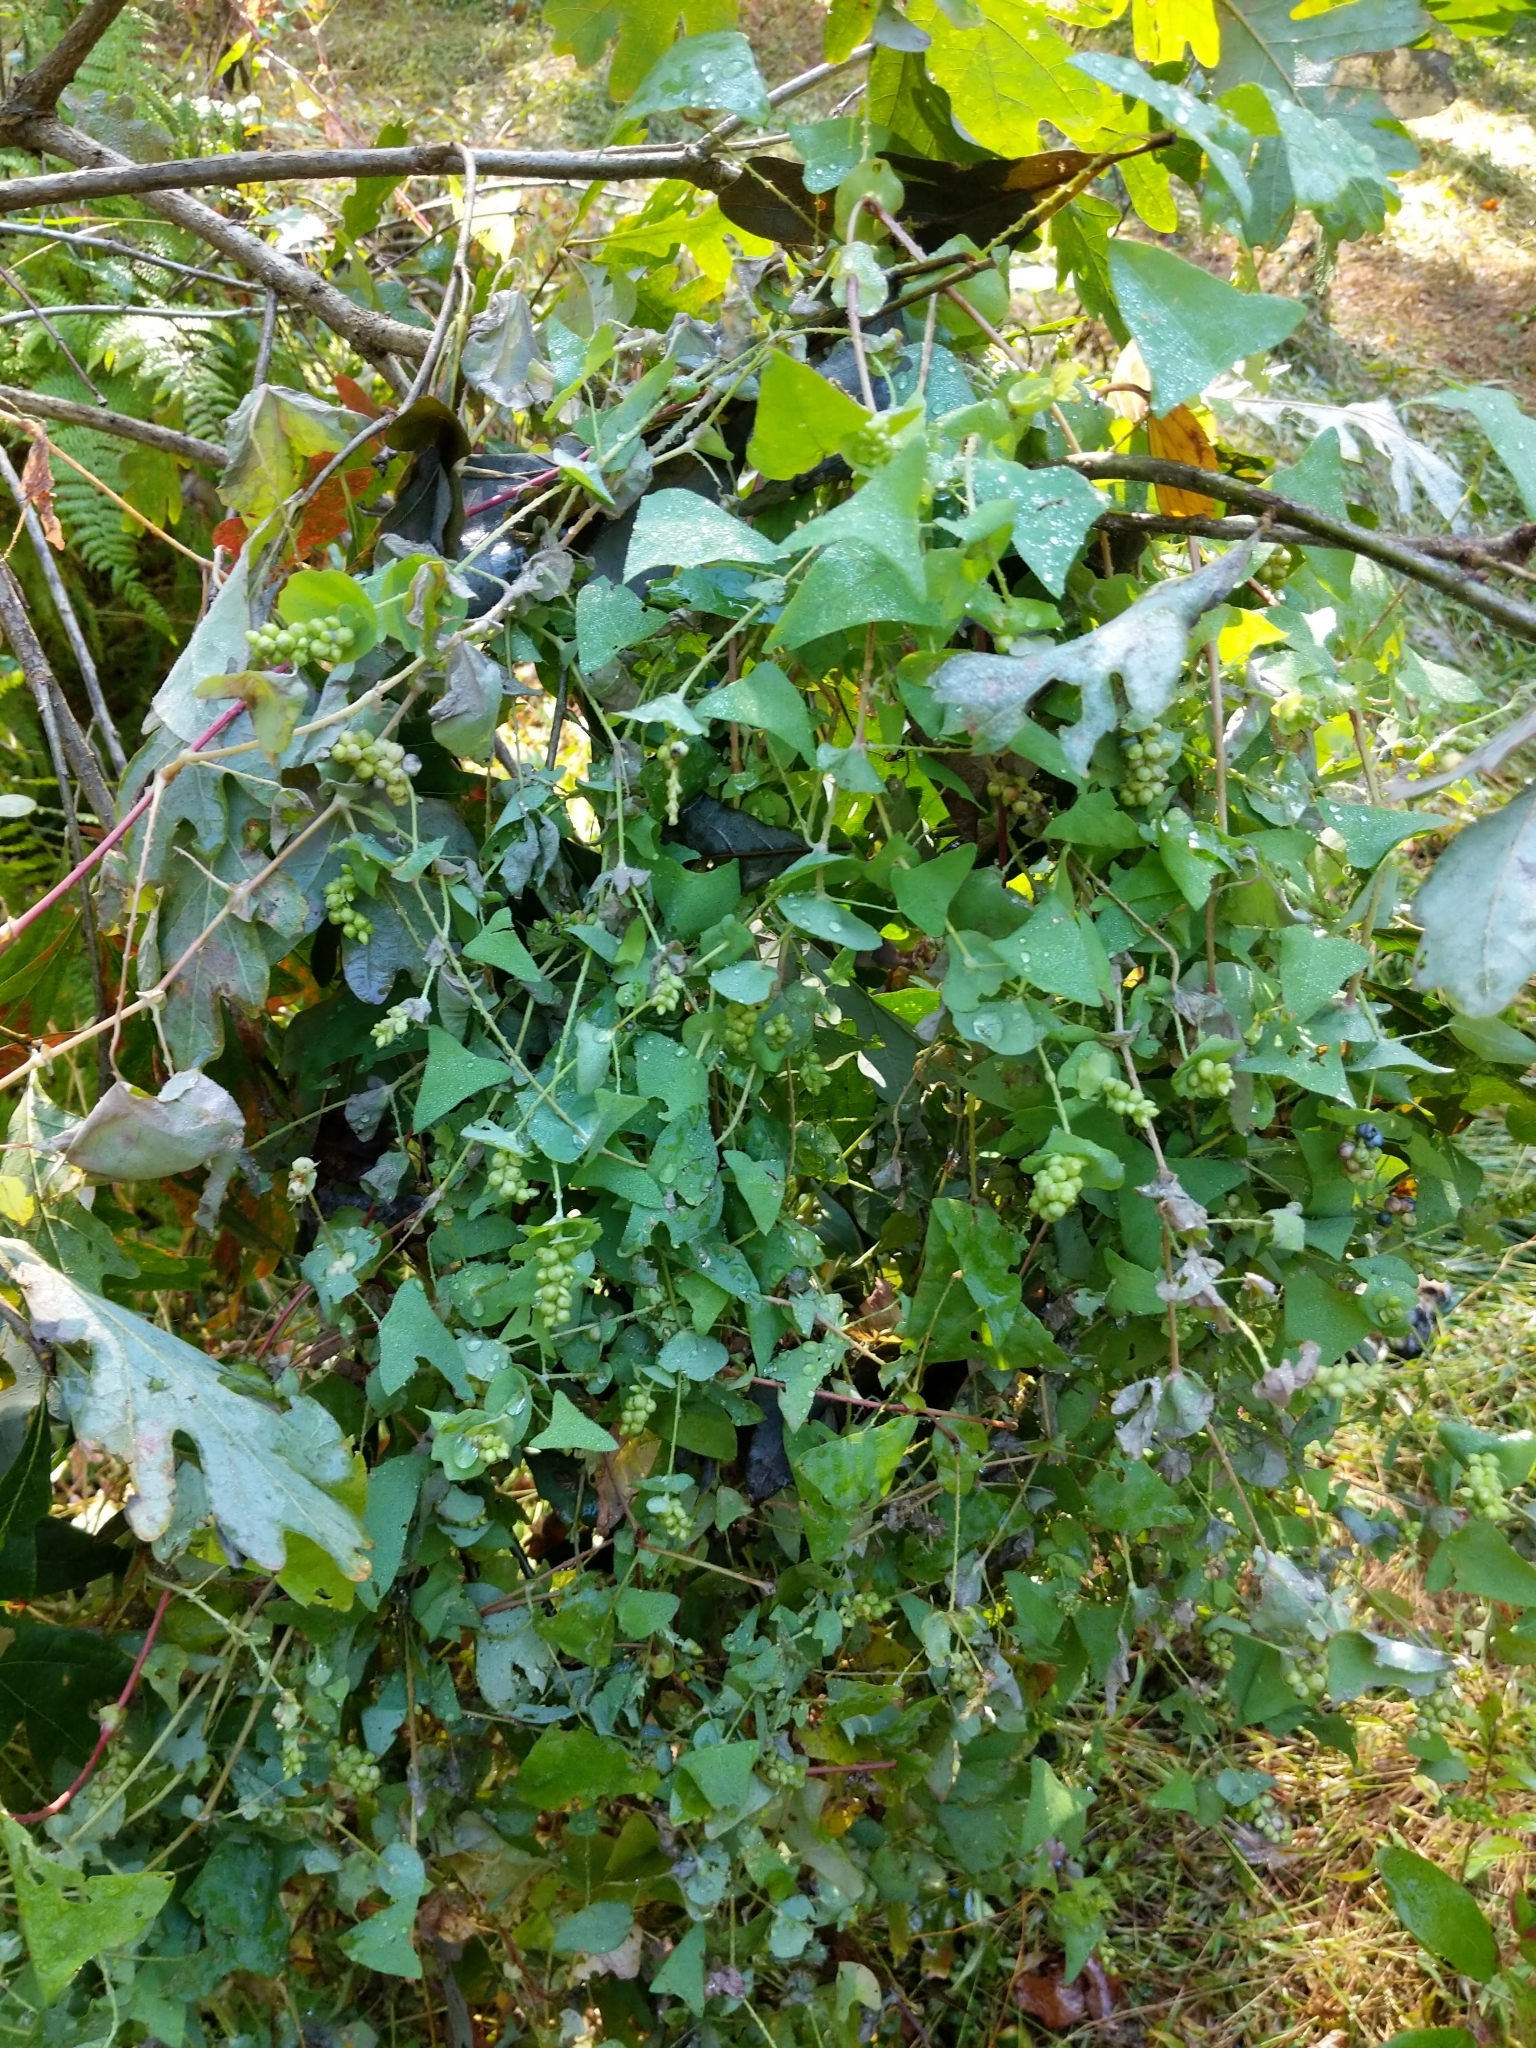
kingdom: Plantae
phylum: Tracheophyta
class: Magnoliopsida
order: Caryophyllales
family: Polygonaceae
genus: Persicaria
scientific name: Persicaria perfoliata
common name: Asiatic tearthumb
